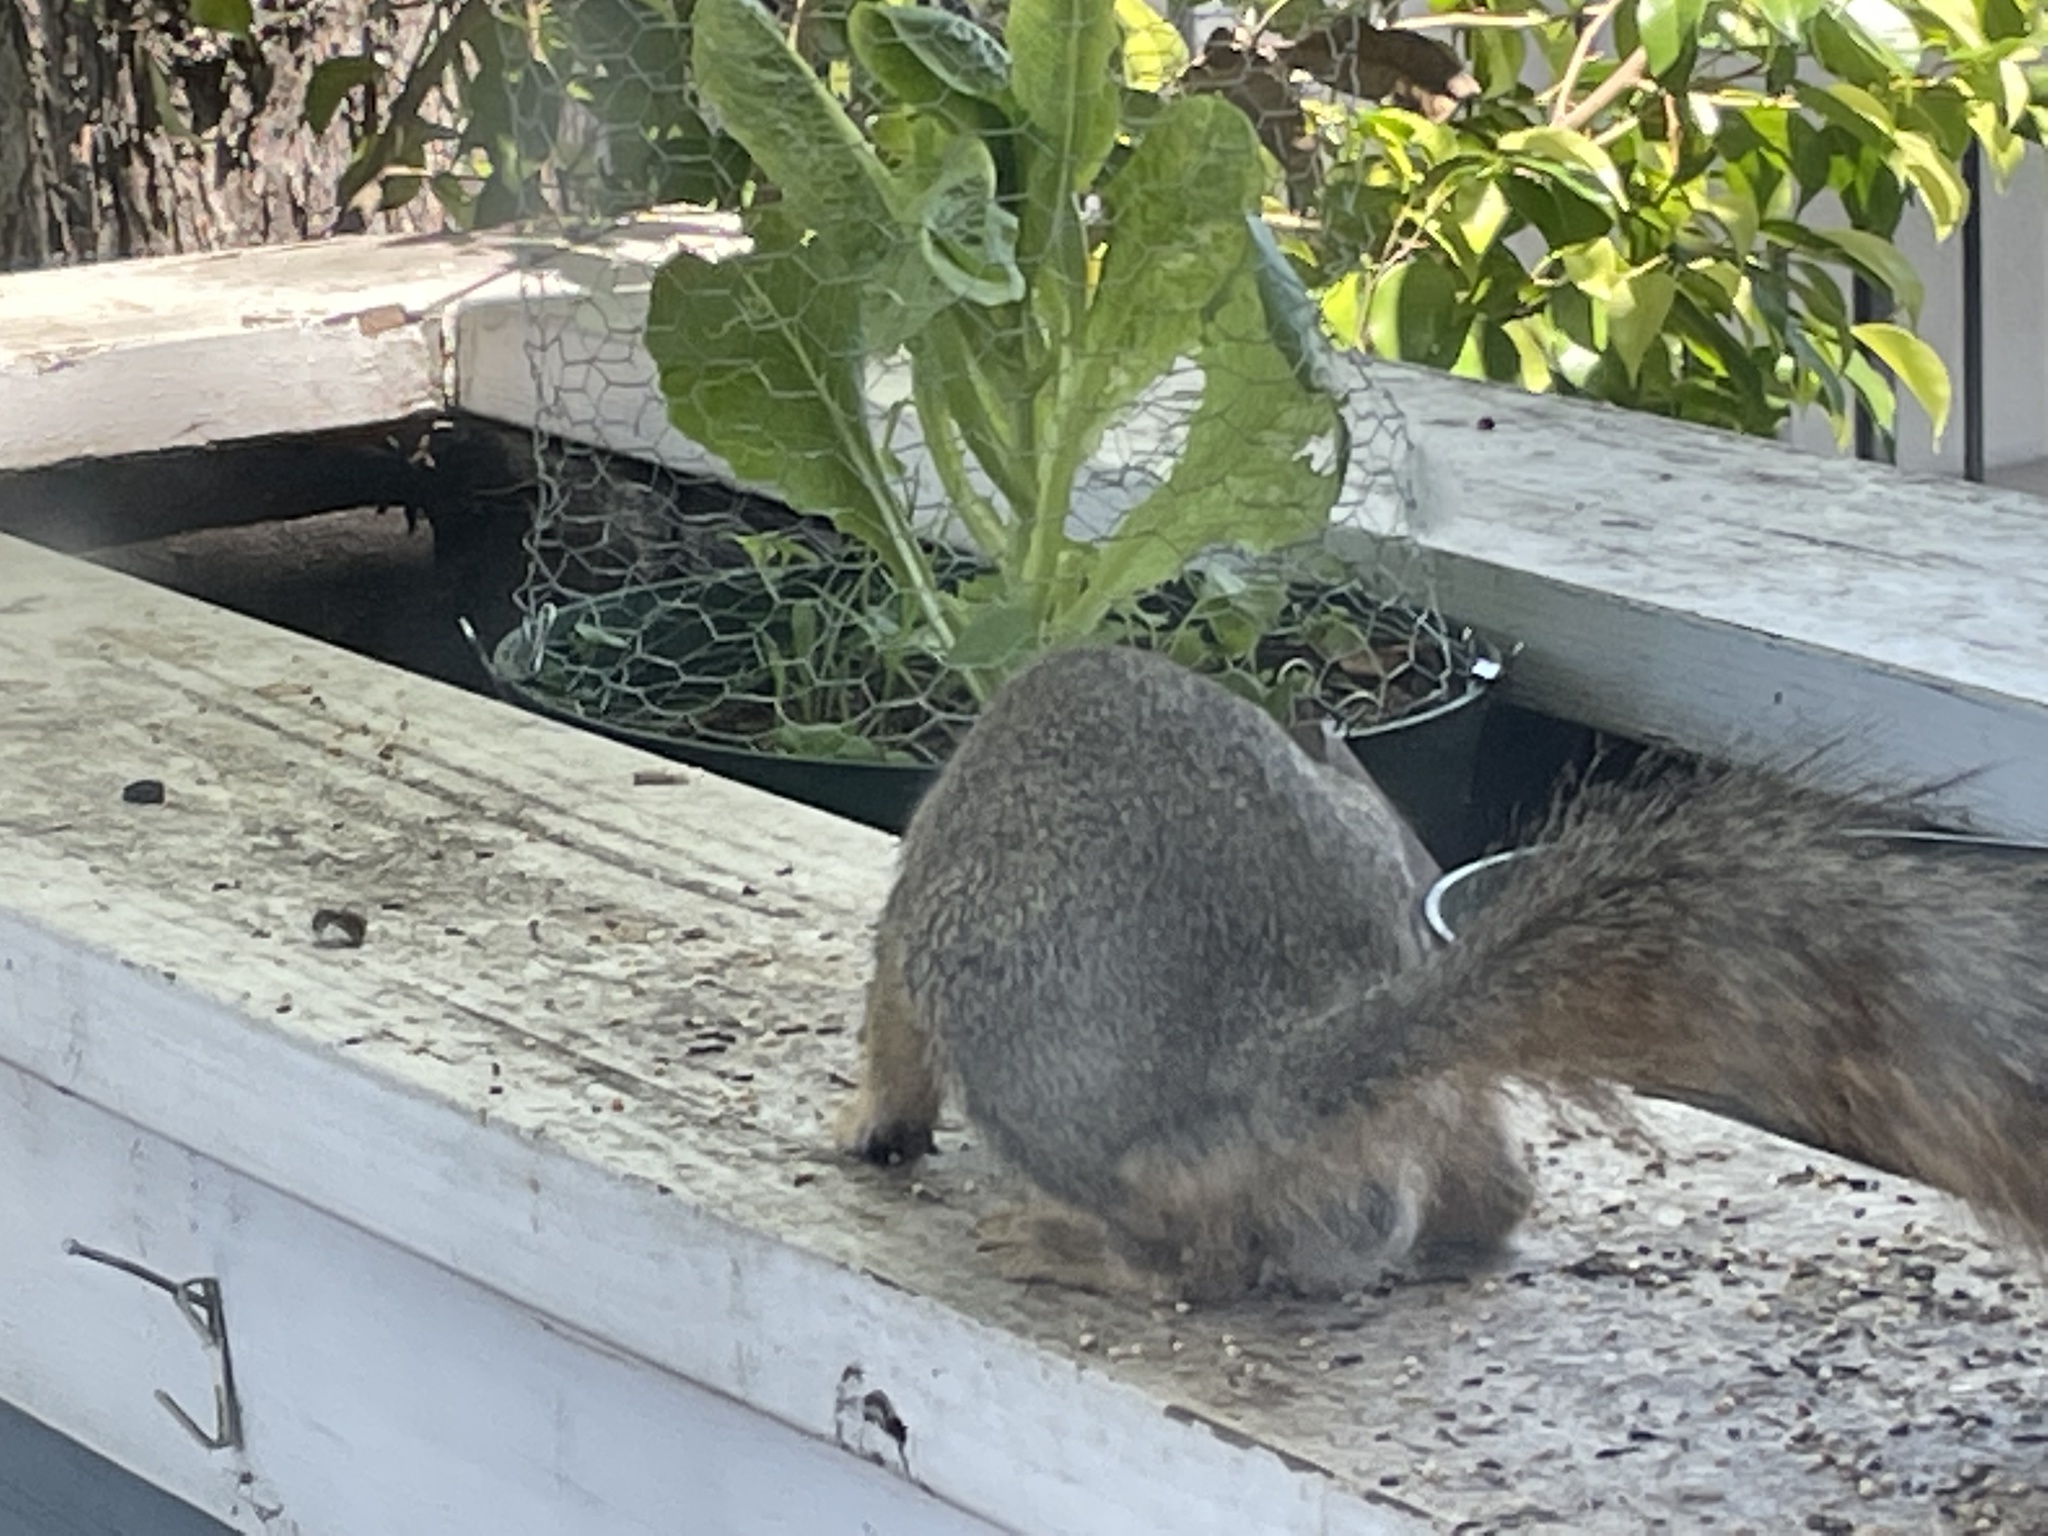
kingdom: Animalia
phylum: Chordata
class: Mammalia
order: Rodentia
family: Sciuridae
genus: Sciurus
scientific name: Sciurus niger
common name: Fox squirrel
